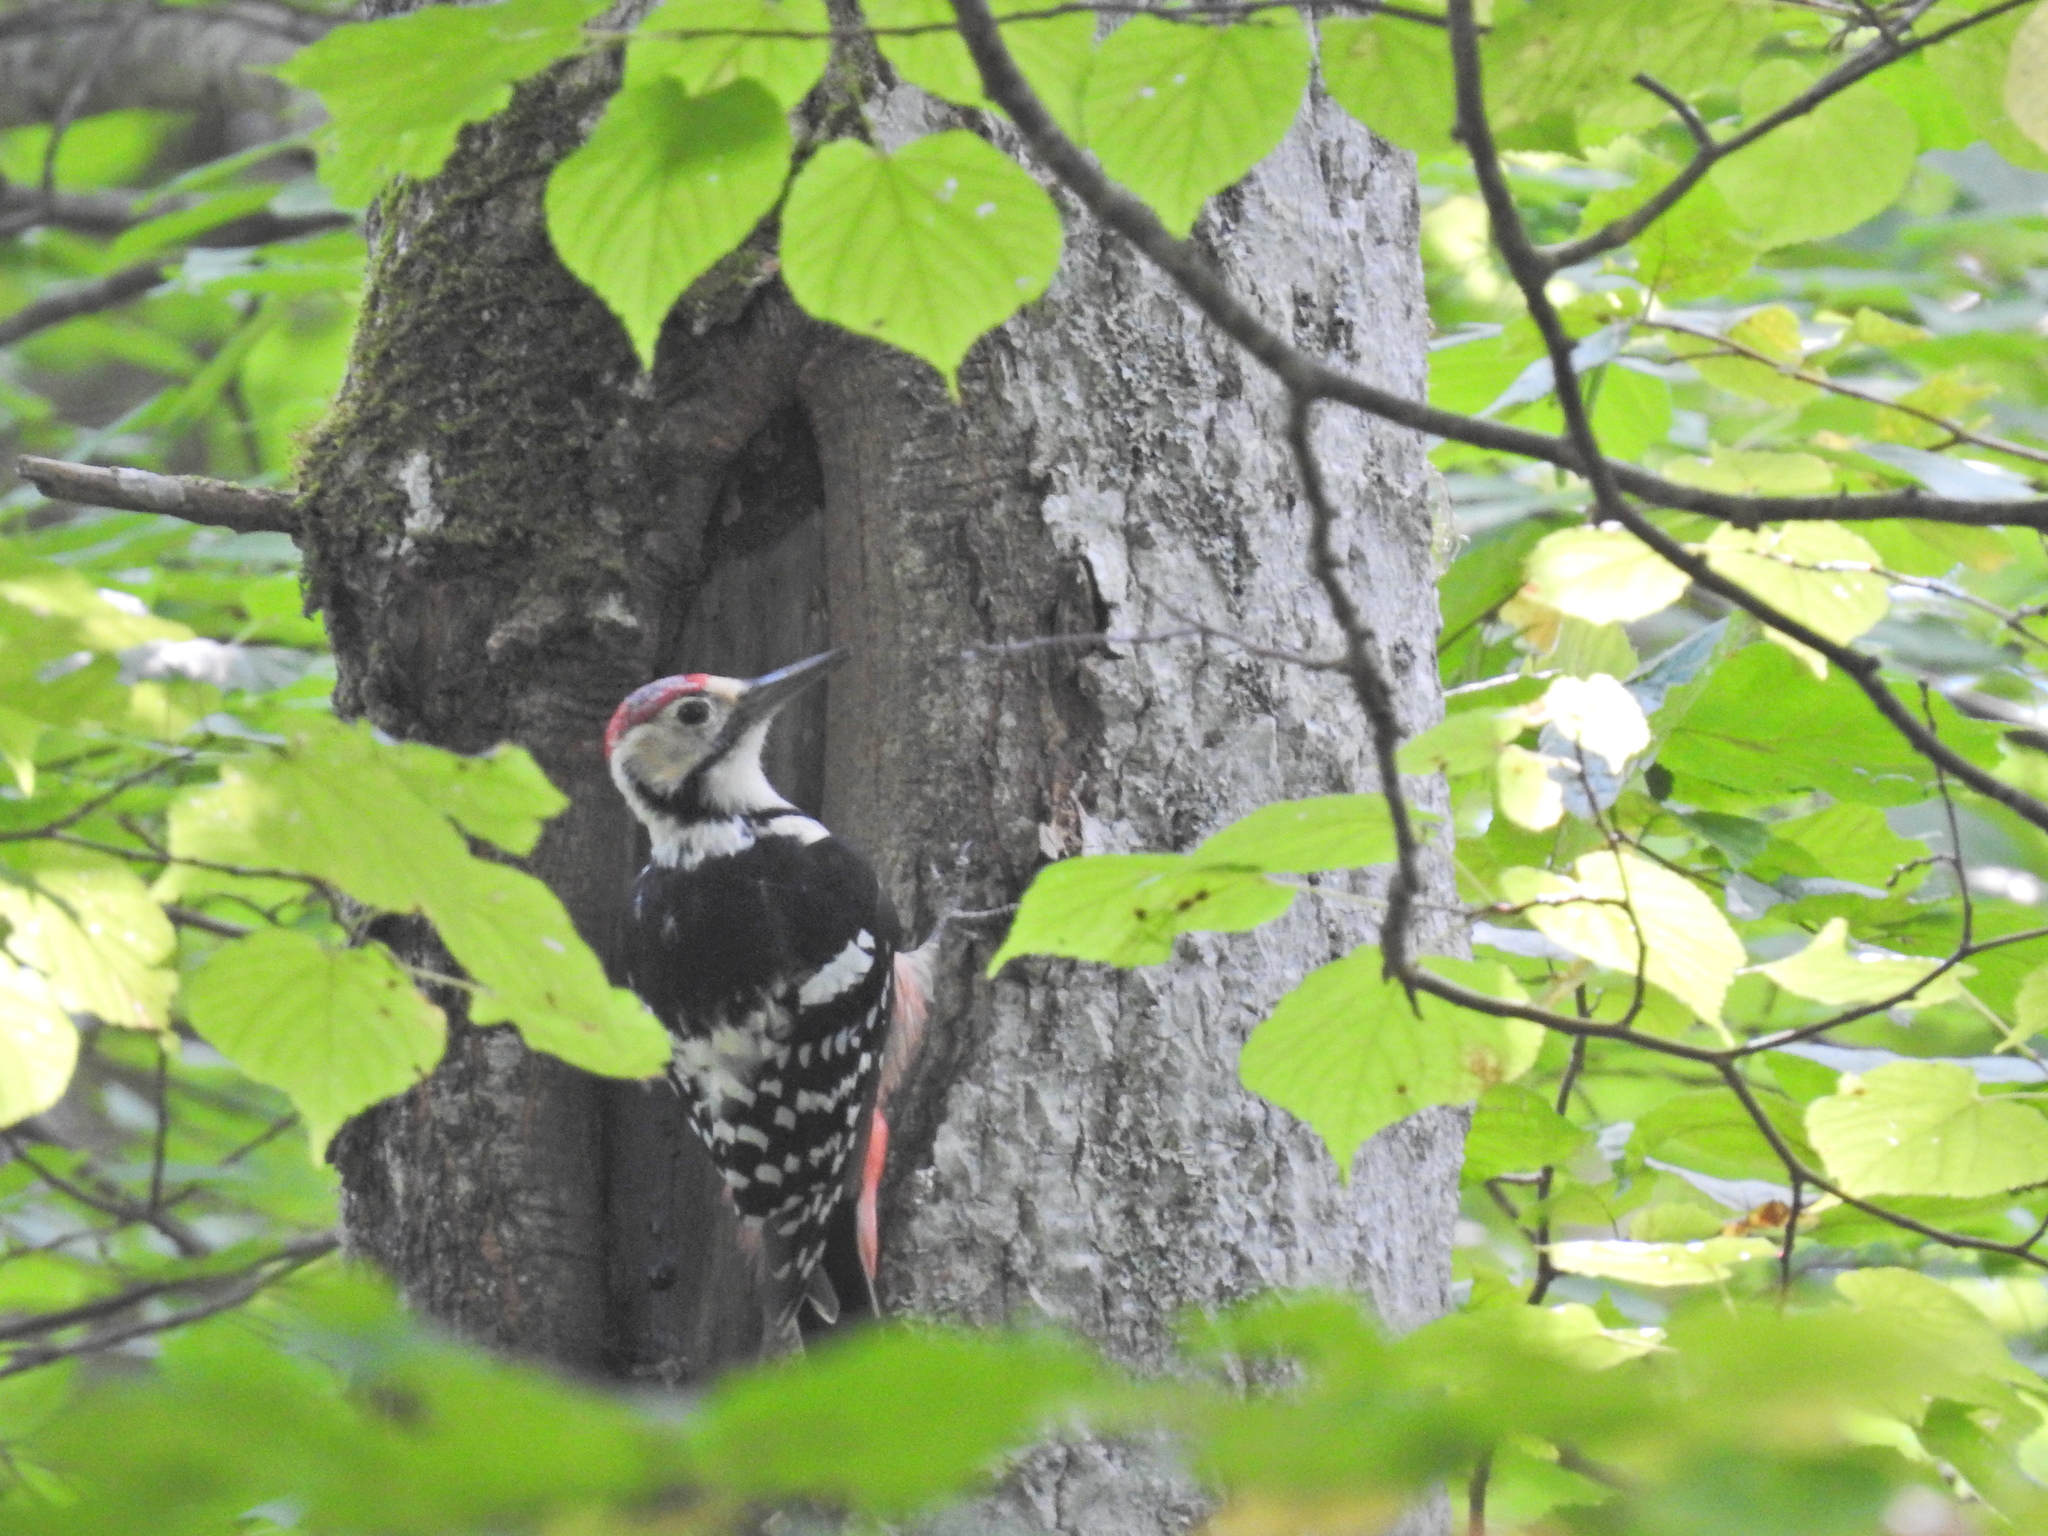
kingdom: Animalia
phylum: Chordata
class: Aves
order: Piciformes
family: Picidae
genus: Dendrocopos
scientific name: Dendrocopos leucotos
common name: White-backed woodpecker
